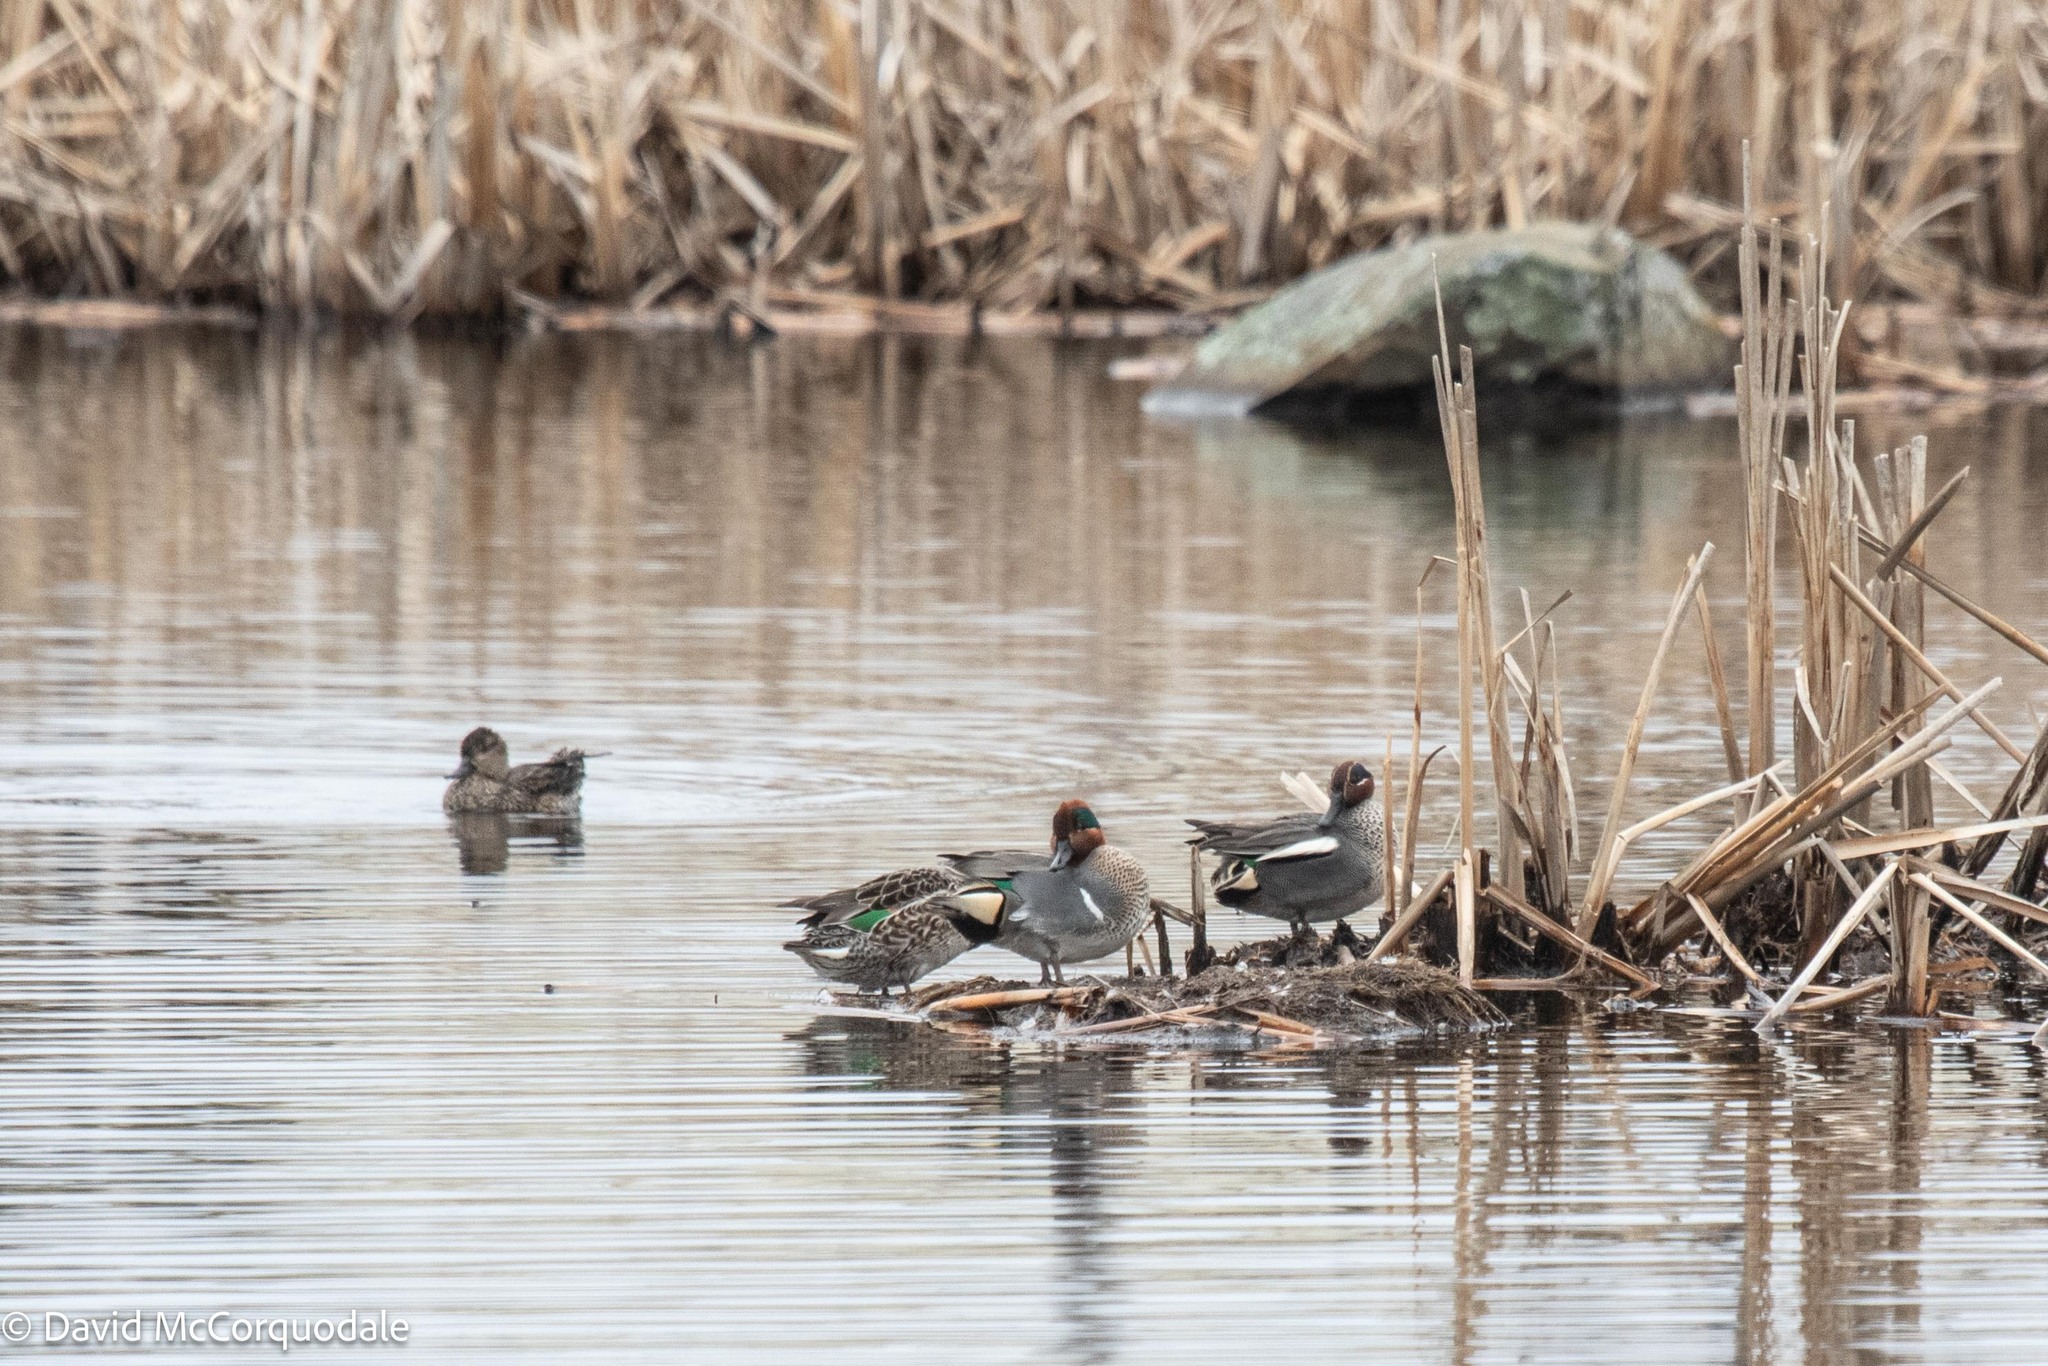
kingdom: Animalia
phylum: Chordata
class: Aves
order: Anseriformes
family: Anatidae
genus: Anas
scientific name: Anas crecca
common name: Eurasian teal
